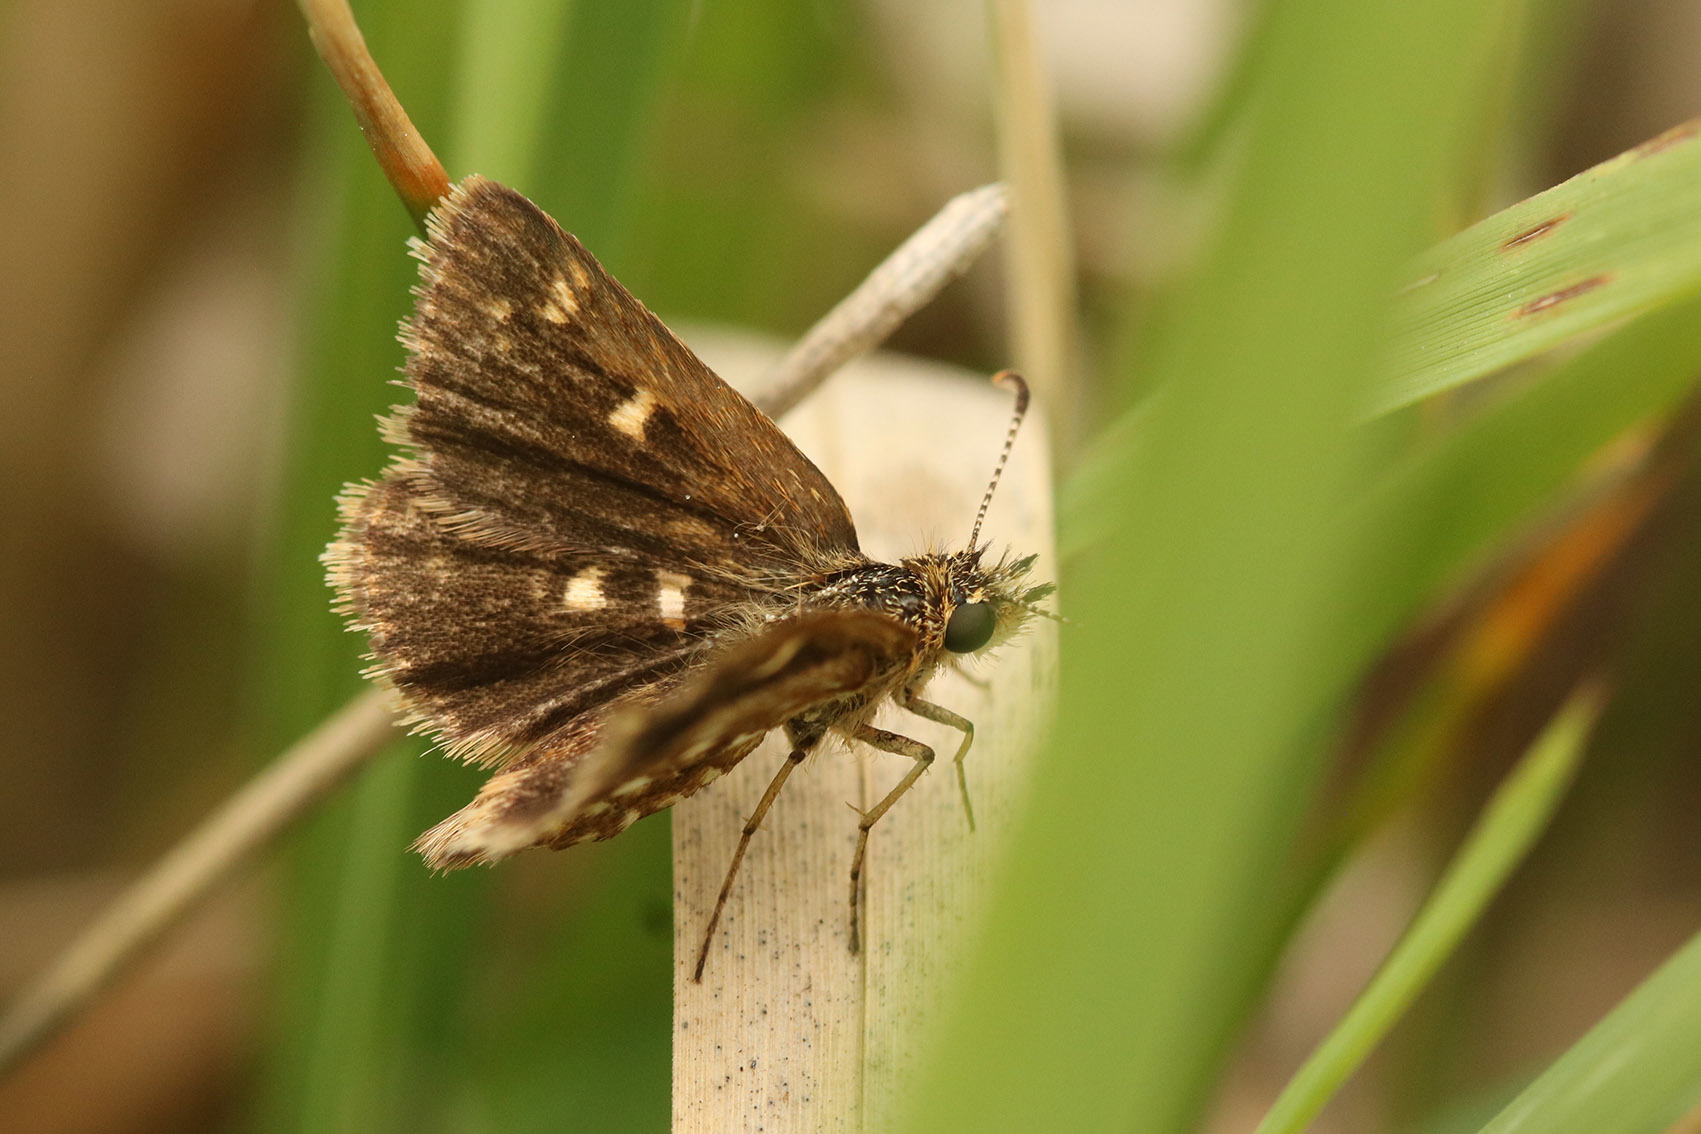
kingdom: Animalia
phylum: Arthropoda
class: Insecta
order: Lepidoptera
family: Hesperiidae
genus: Dardarina
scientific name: Dardarina
